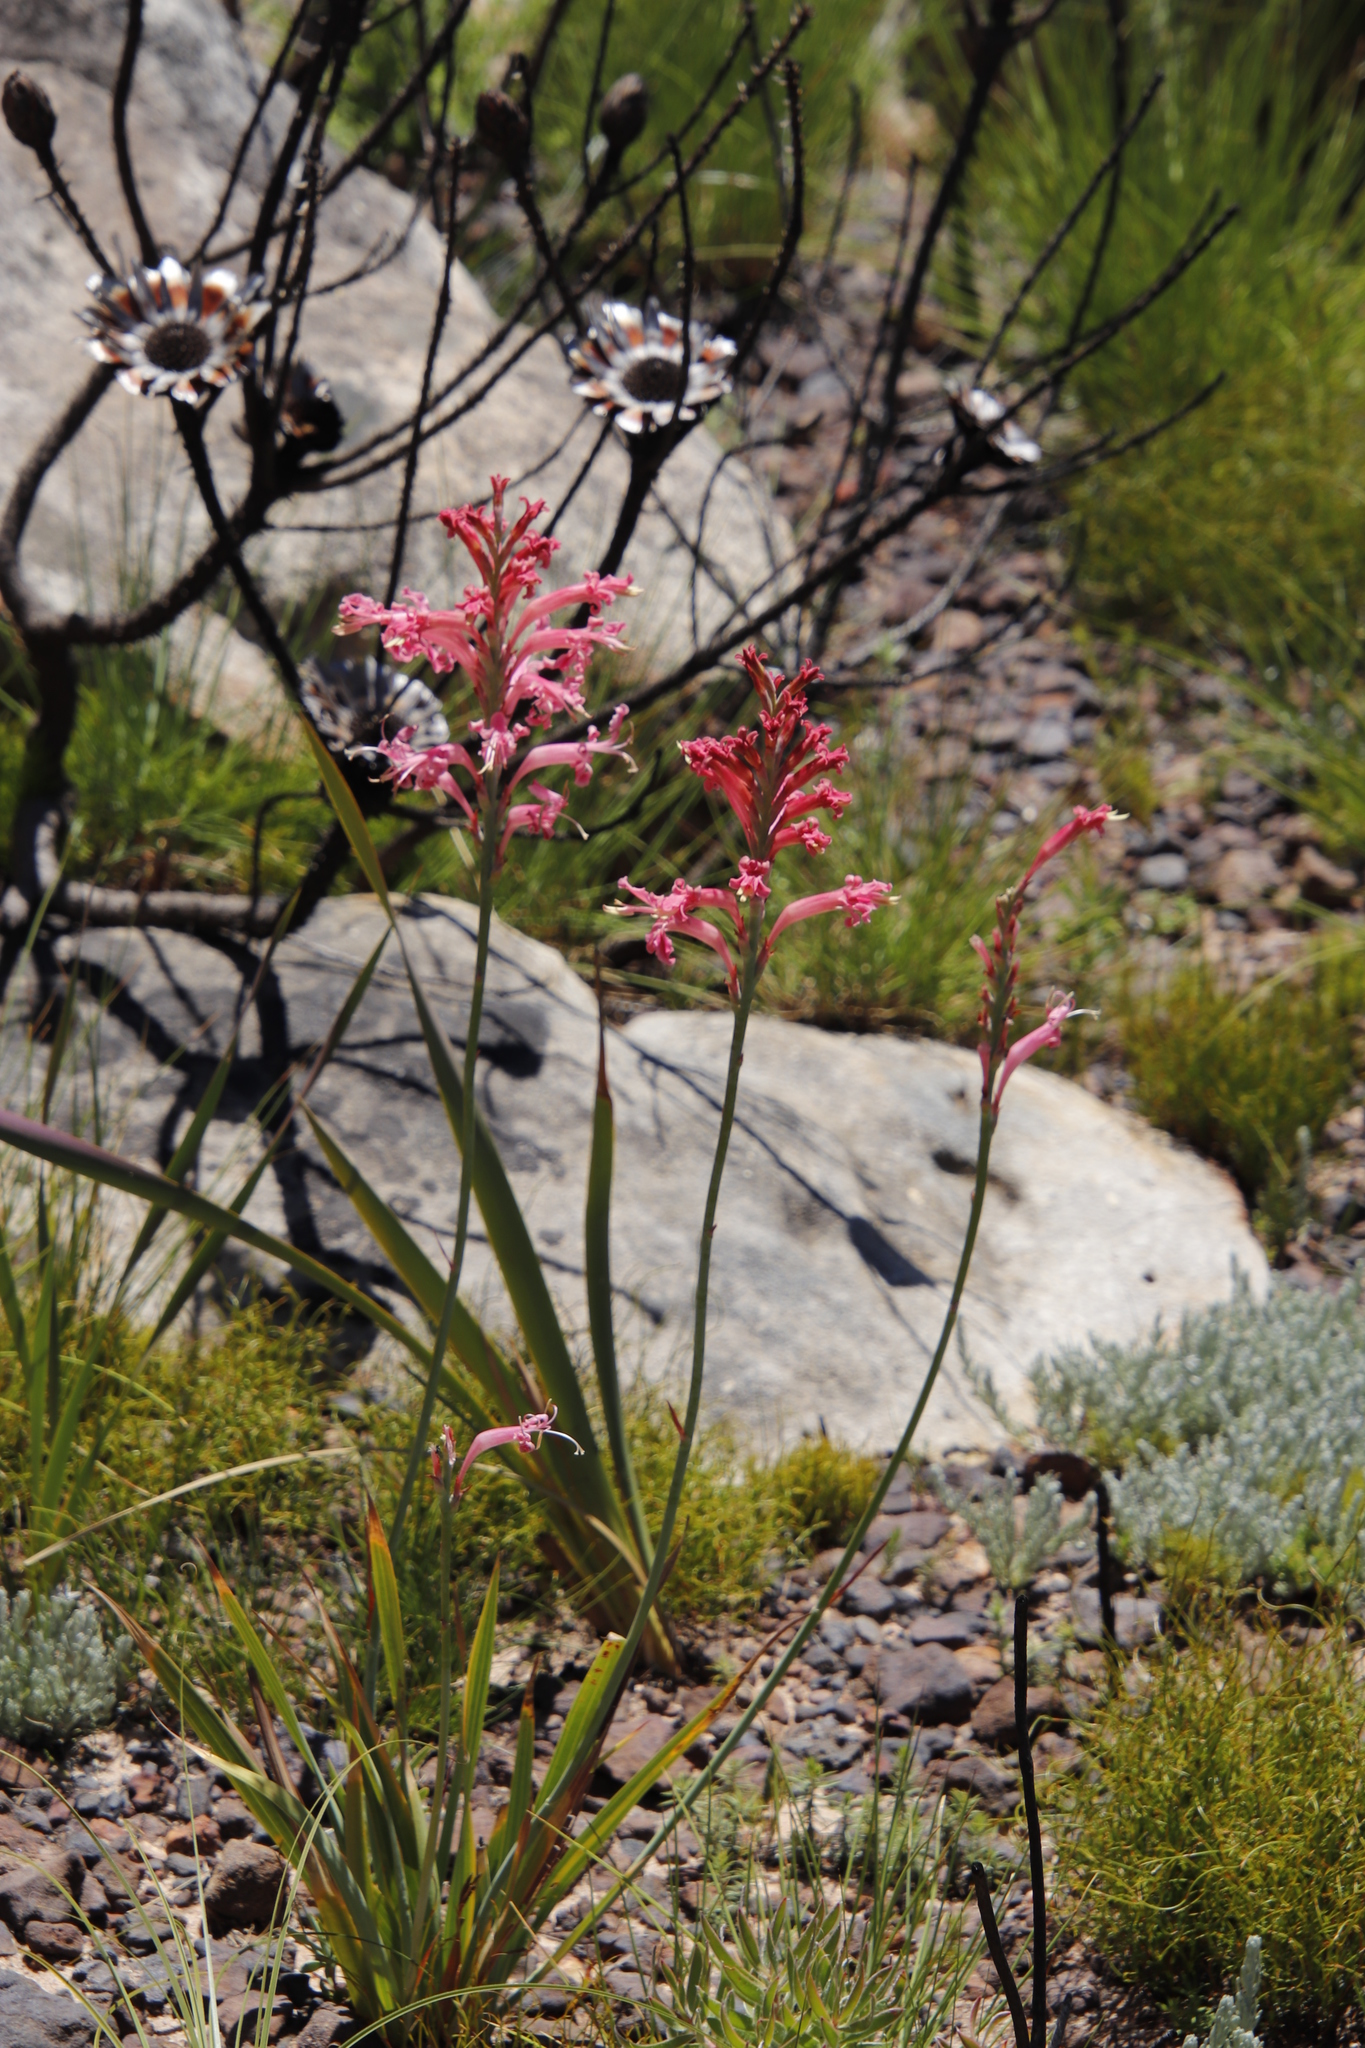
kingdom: Plantae
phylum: Tracheophyta
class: Liliopsida
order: Asparagales
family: Iridaceae
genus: Tritoniopsis
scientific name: Tritoniopsis antholyza
